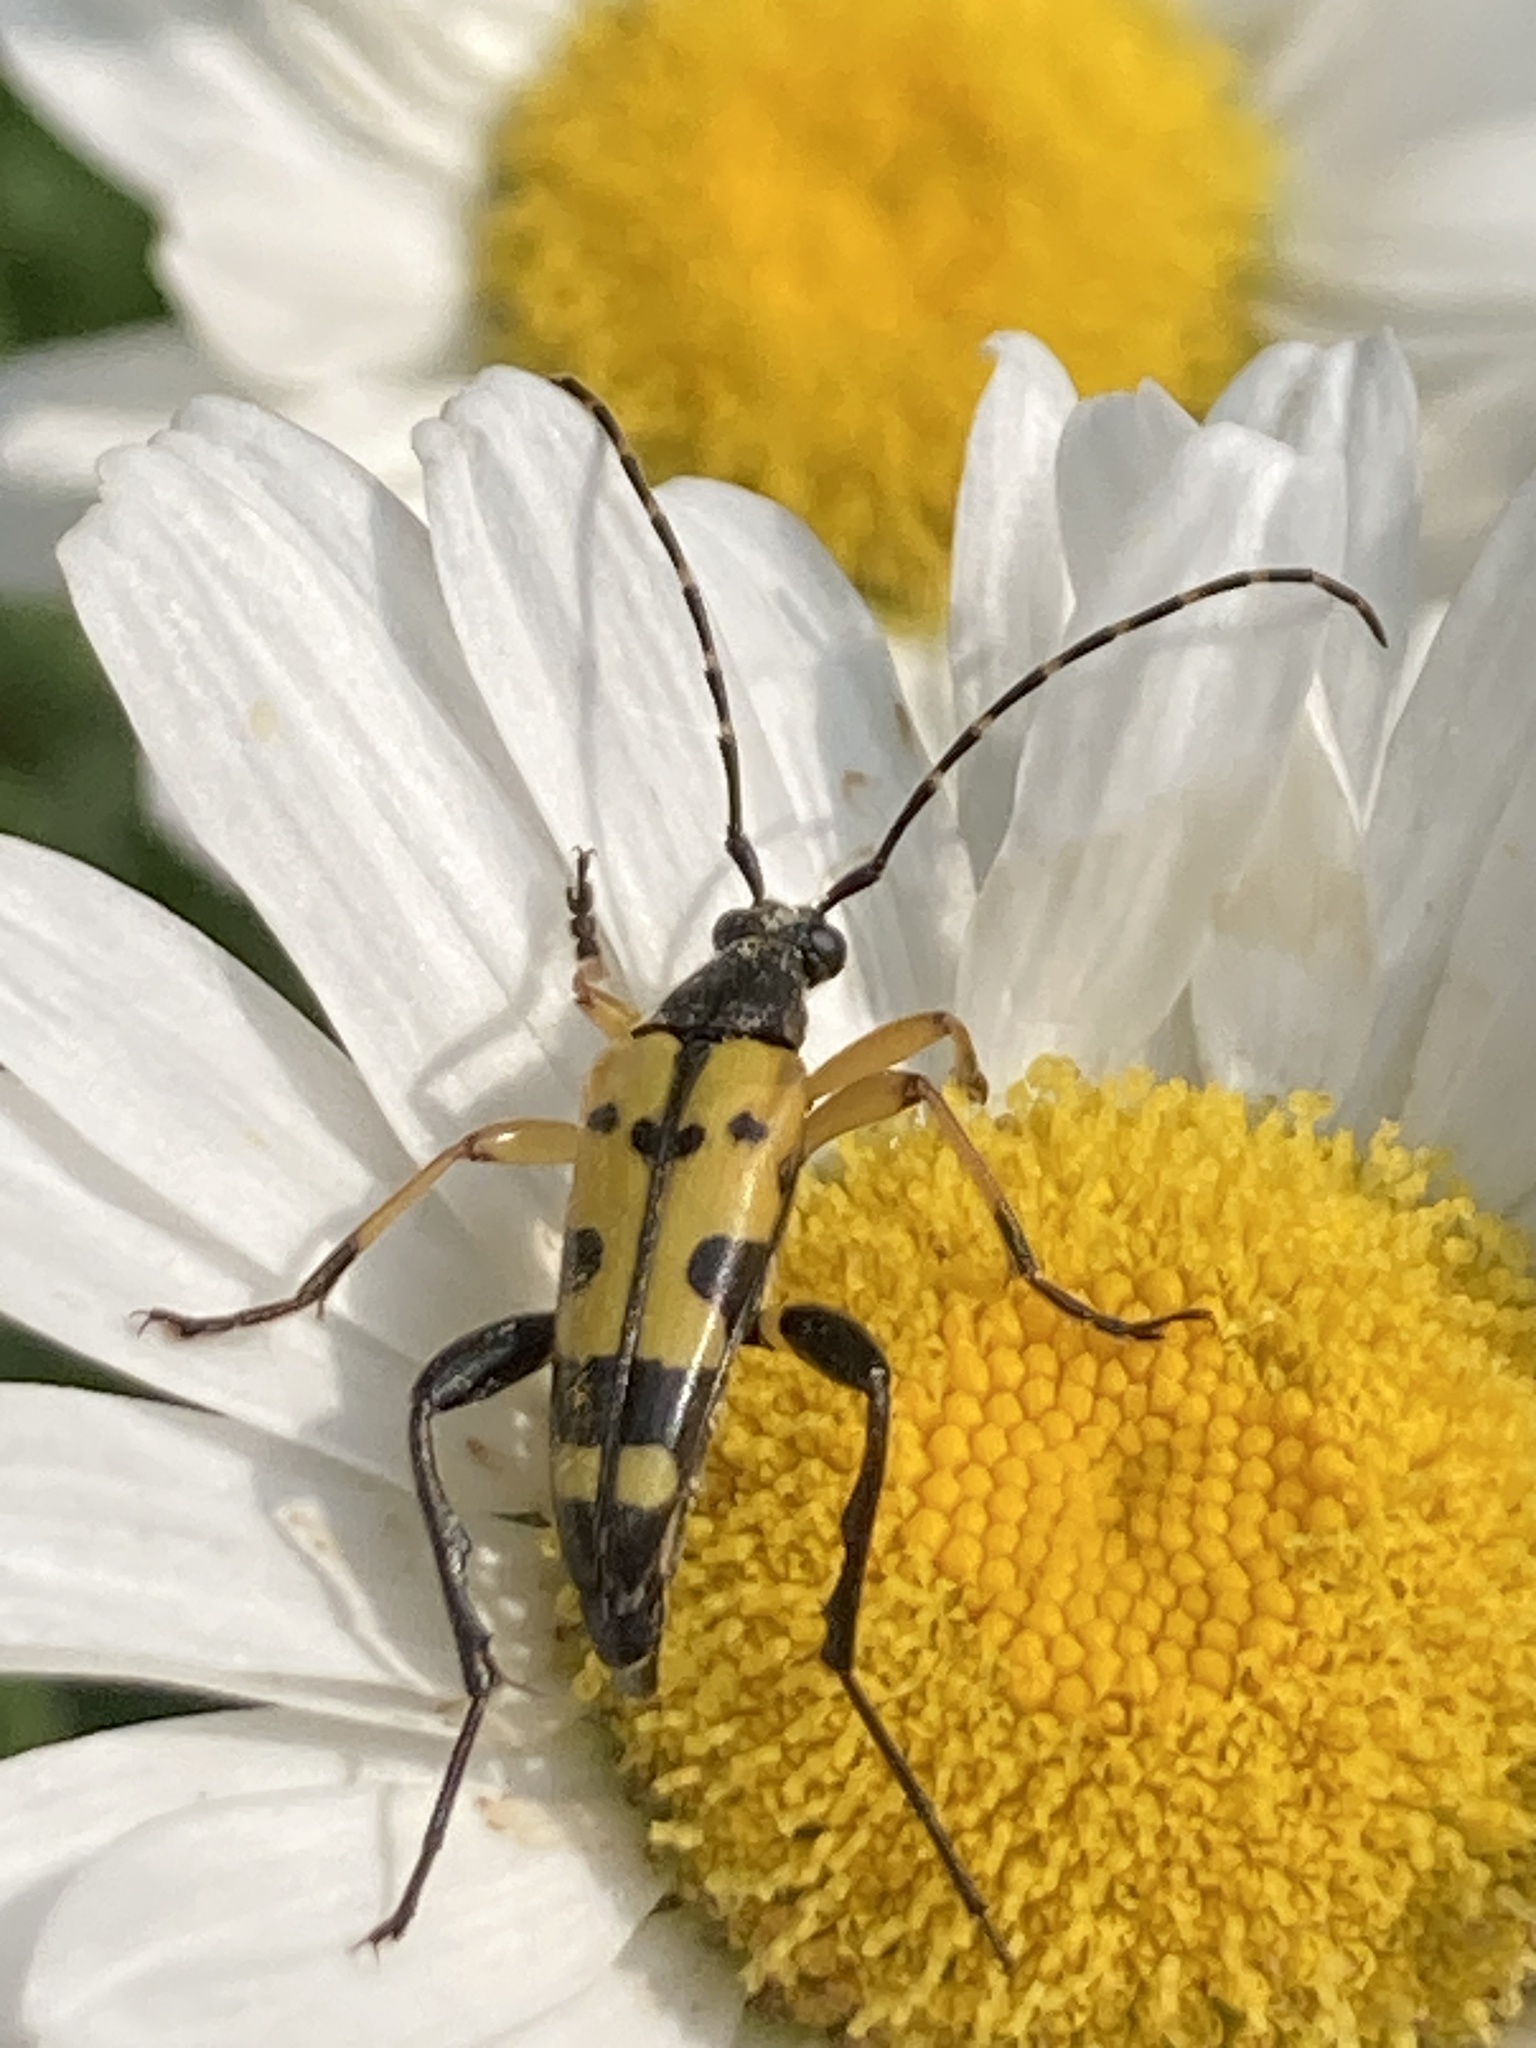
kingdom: Animalia
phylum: Arthropoda
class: Insecta
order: Coleoptera
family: Cerambycidae
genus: Rutpela
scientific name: Rutpela maculata
